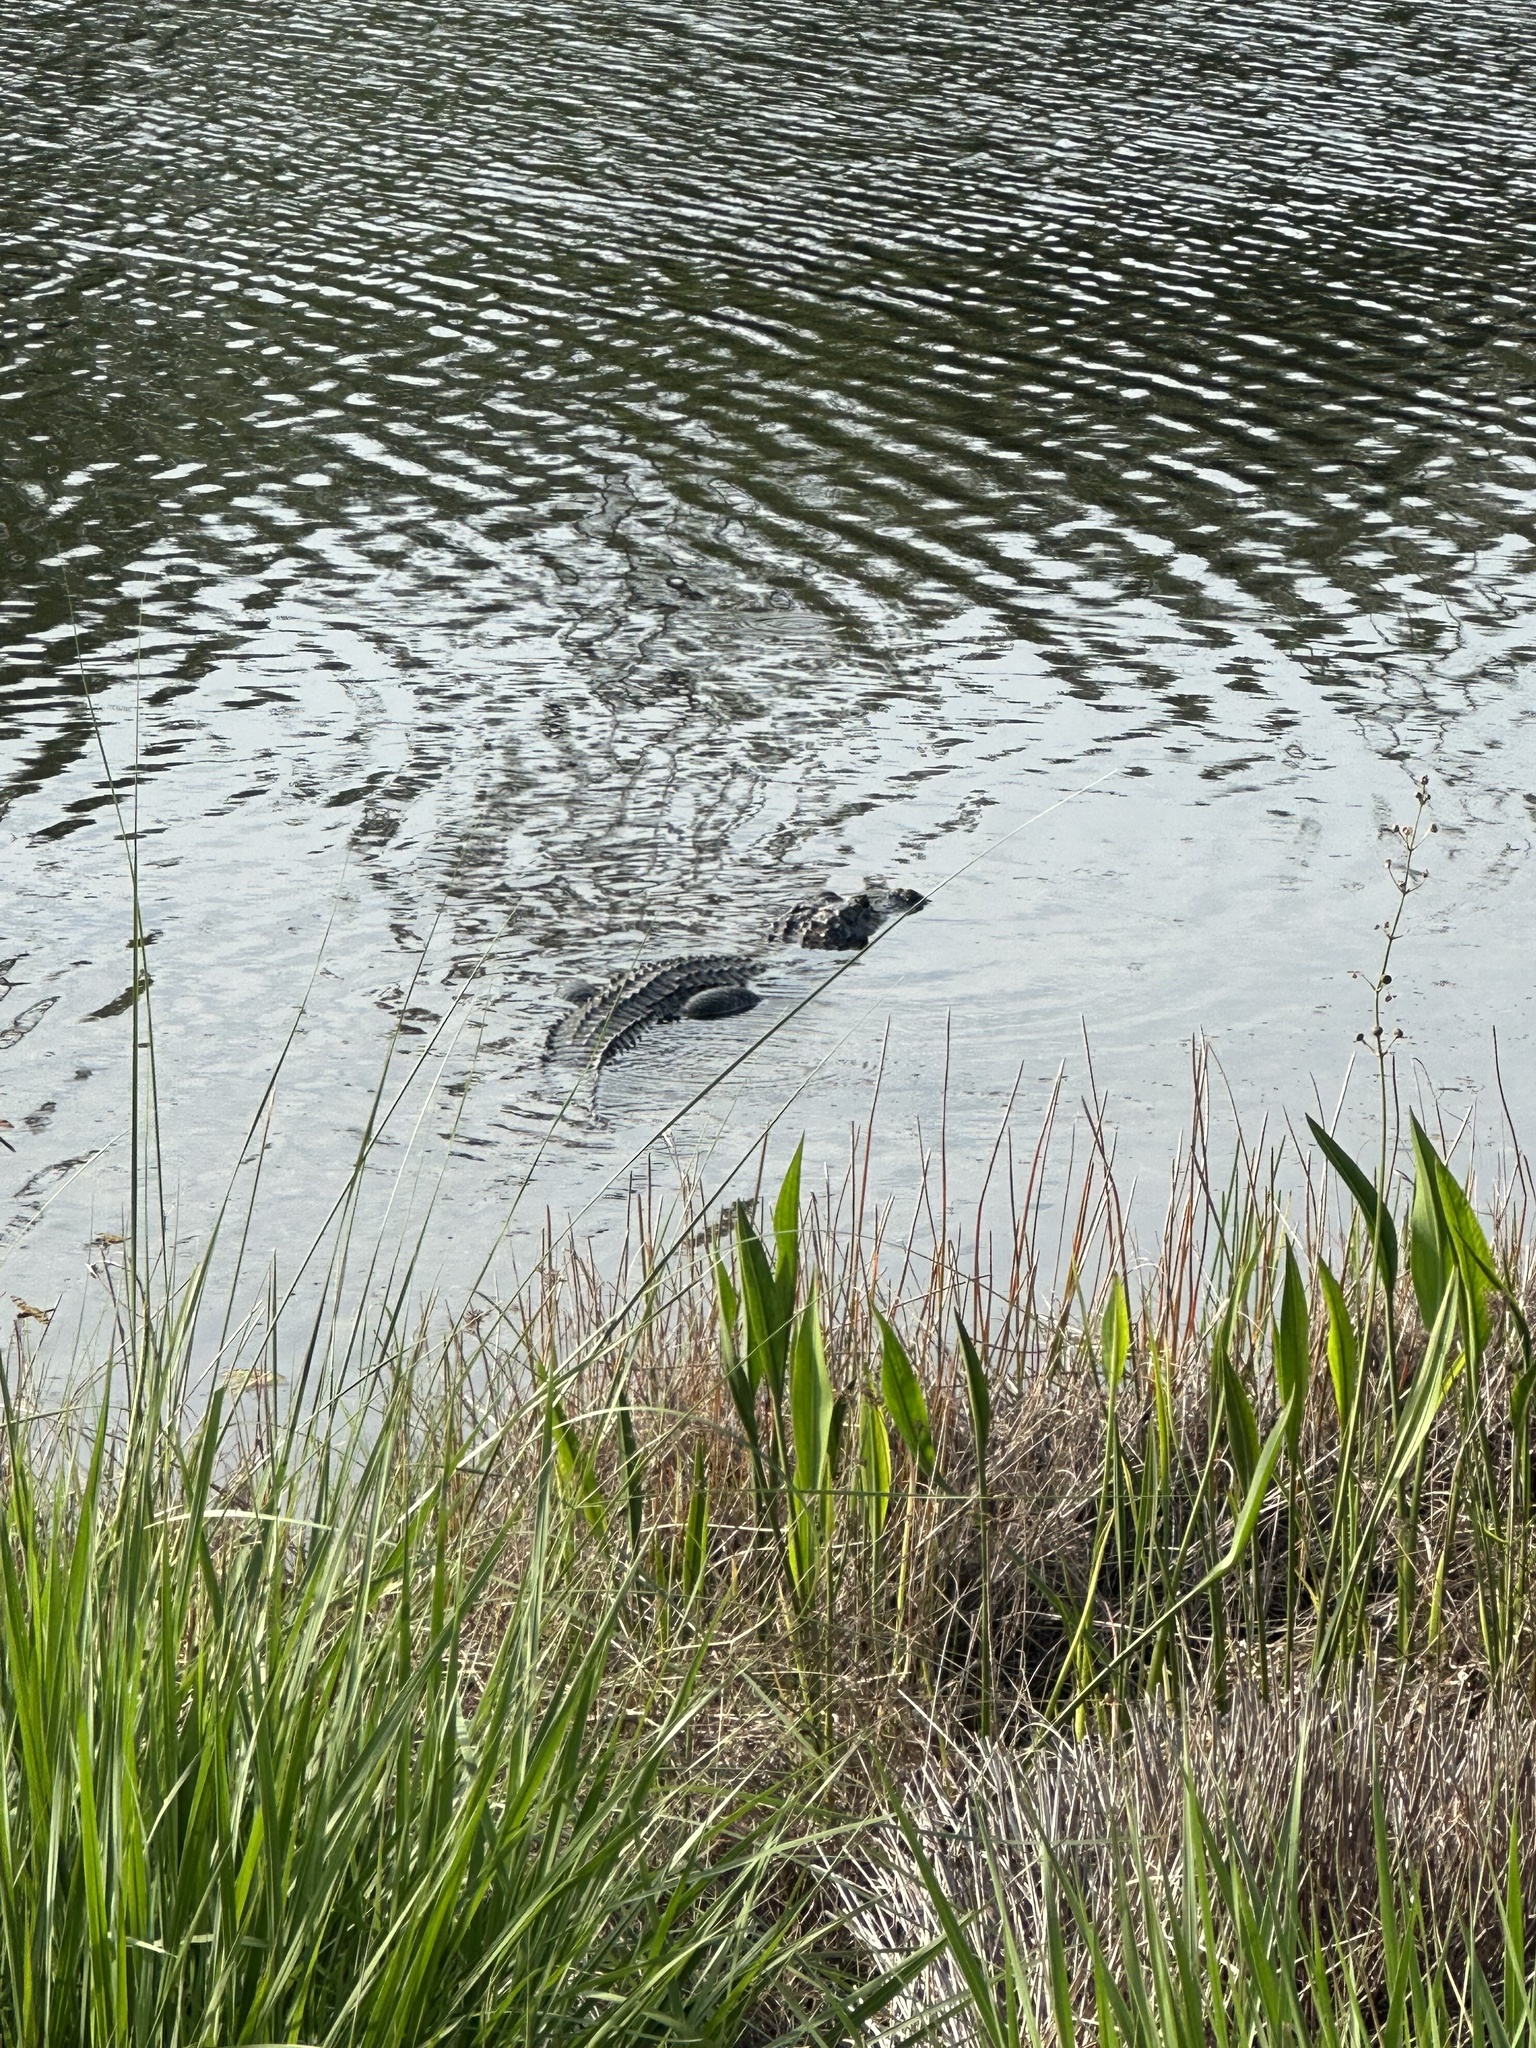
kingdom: Animalia
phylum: Chordata
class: Crocodylia
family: Alligatoridae
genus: Alligator
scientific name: Alligator mississippiensis
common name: American alligator
